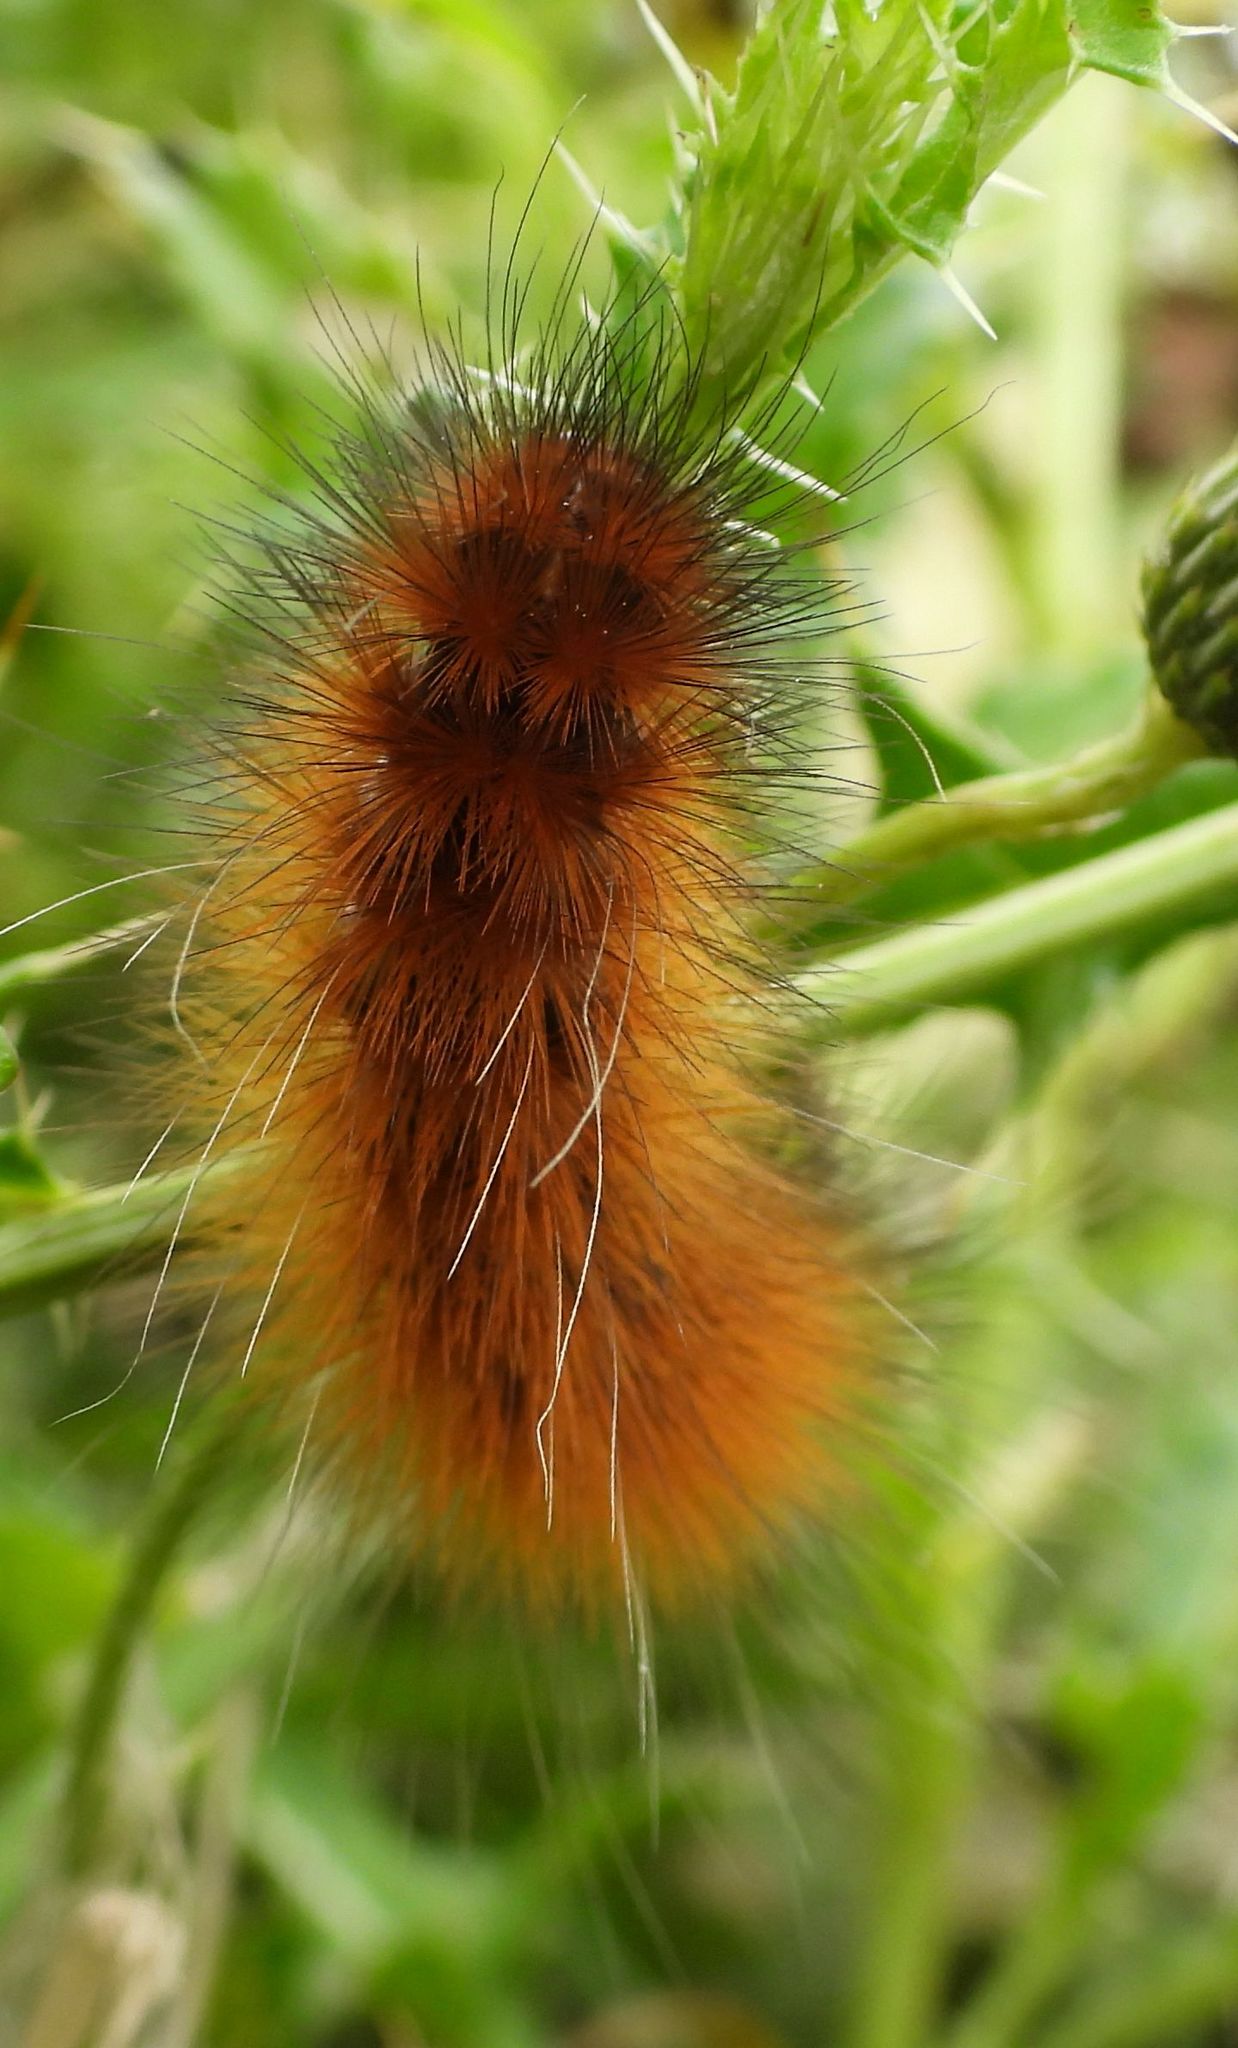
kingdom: Animalia
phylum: Arthropoda
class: Insecta
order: Lepidoptera
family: Erebidae
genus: Spilosoma
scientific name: Spilosoma virginica
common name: Virginia tiger moth
